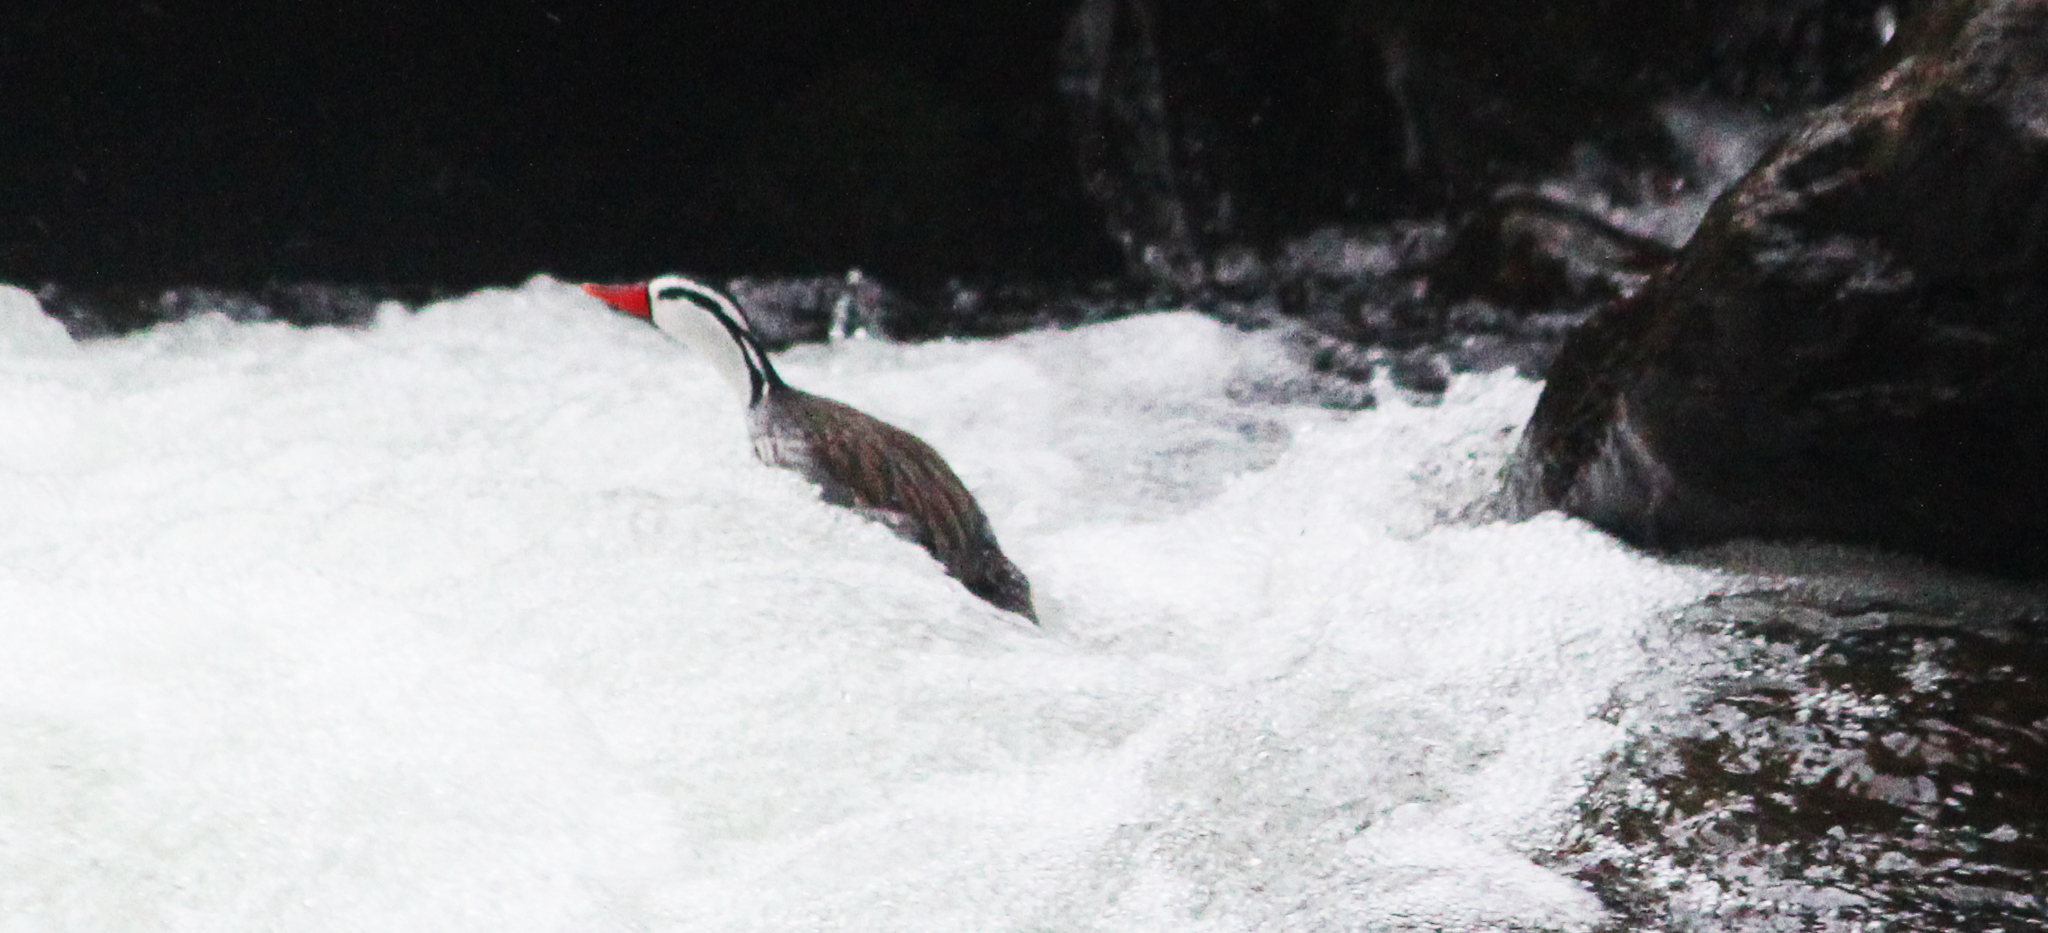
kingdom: Animalia
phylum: Chordata
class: Aves
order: Anseriformes
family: Anatidae
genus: Merganetta
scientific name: Merganetta armata
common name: Torrent duck
